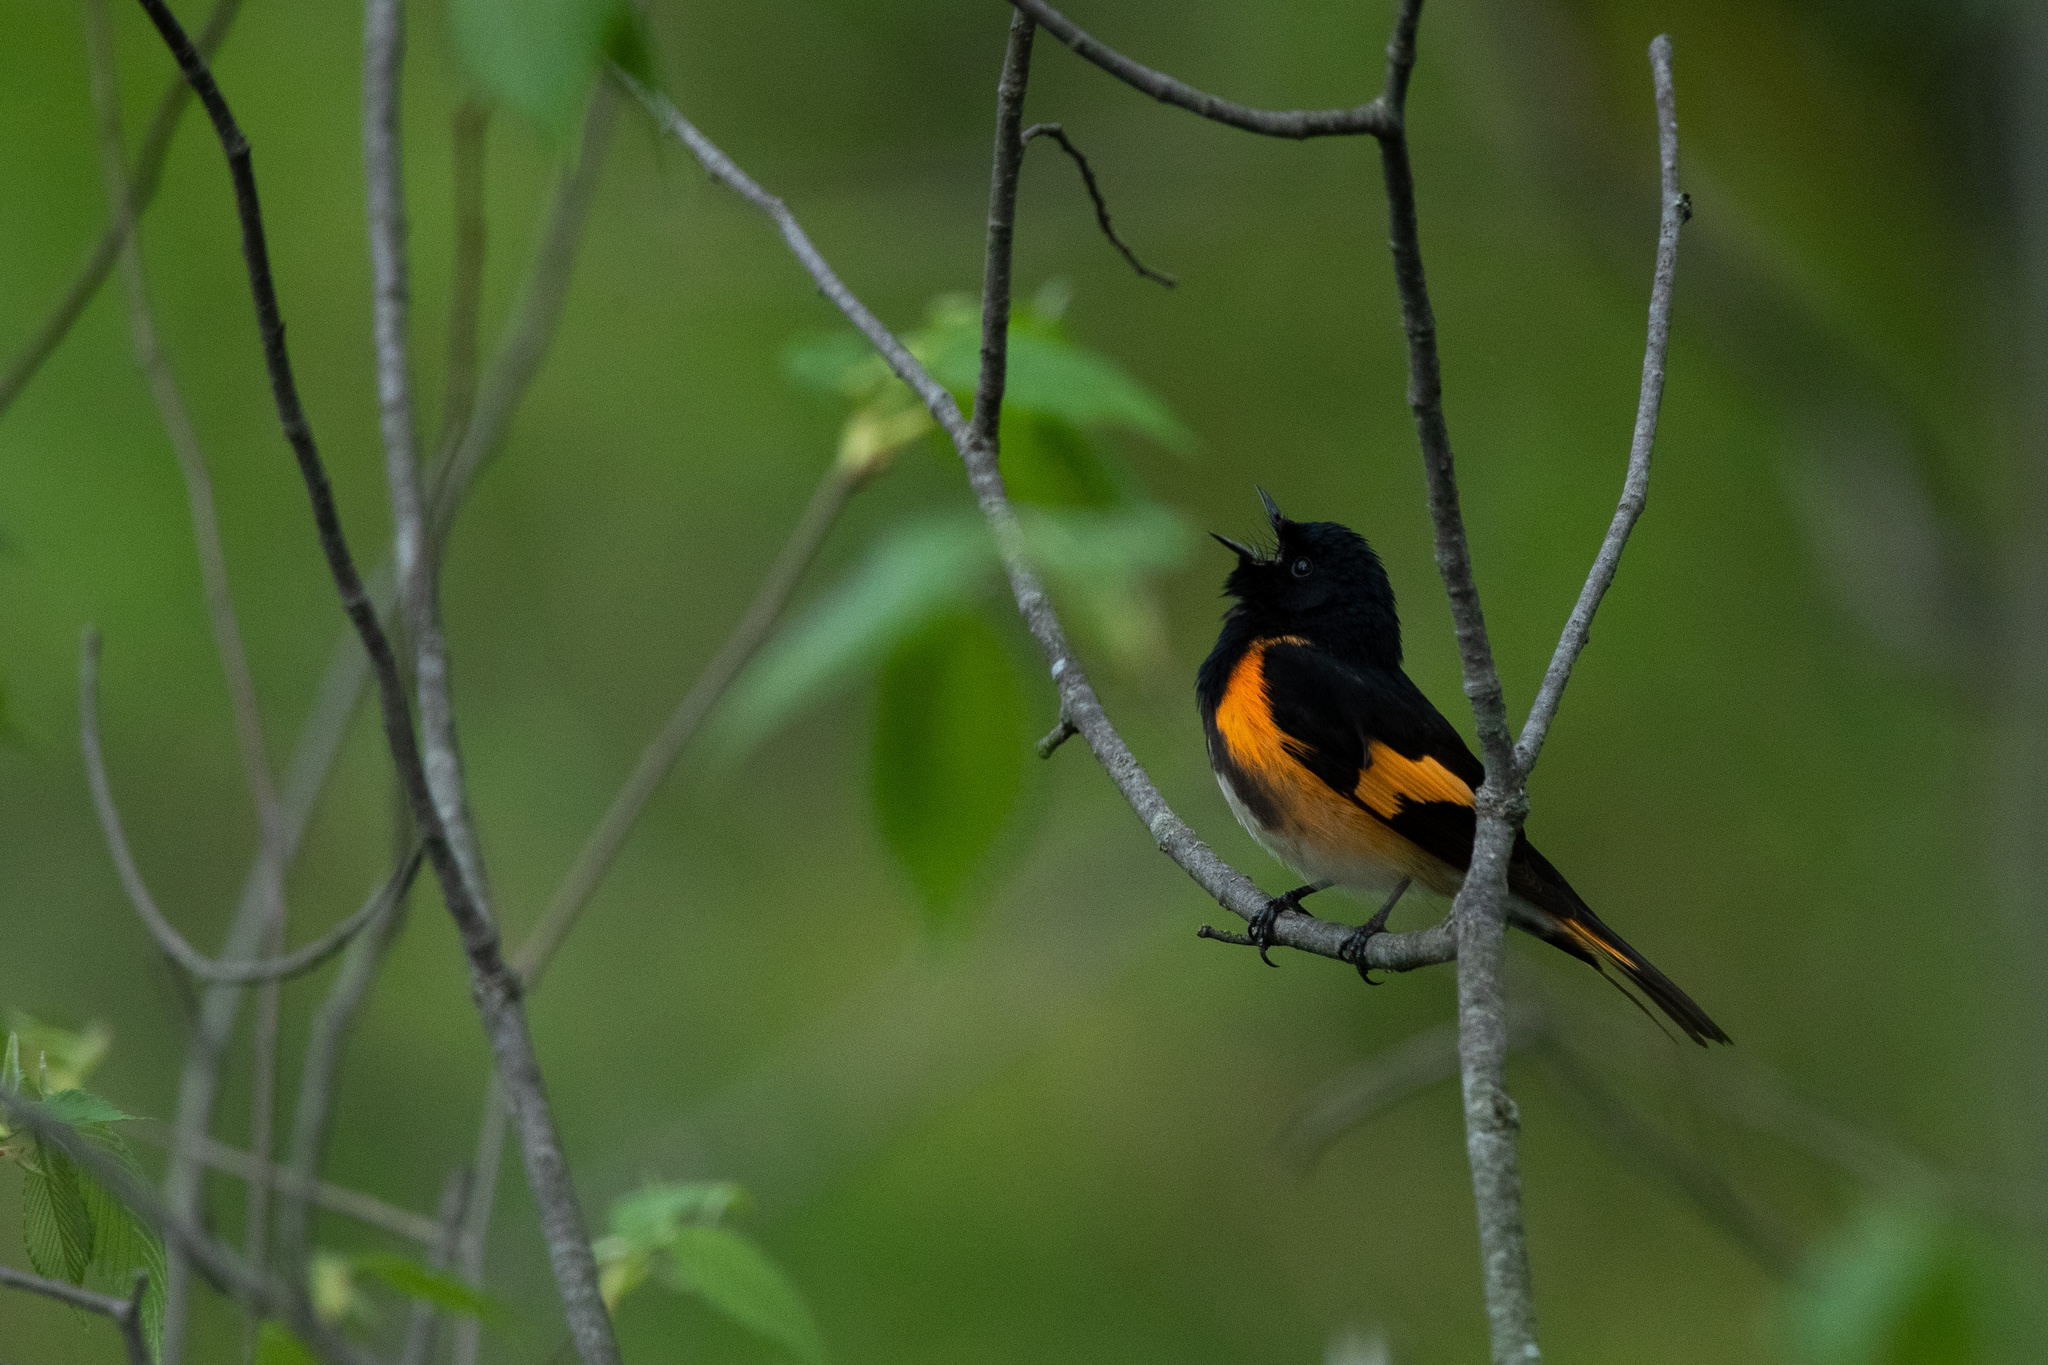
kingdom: Animalia
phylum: Chordata
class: Aves
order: Passeriformes
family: Parulidae
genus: Setophaga
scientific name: Setophaga ruticilla
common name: American redstart
